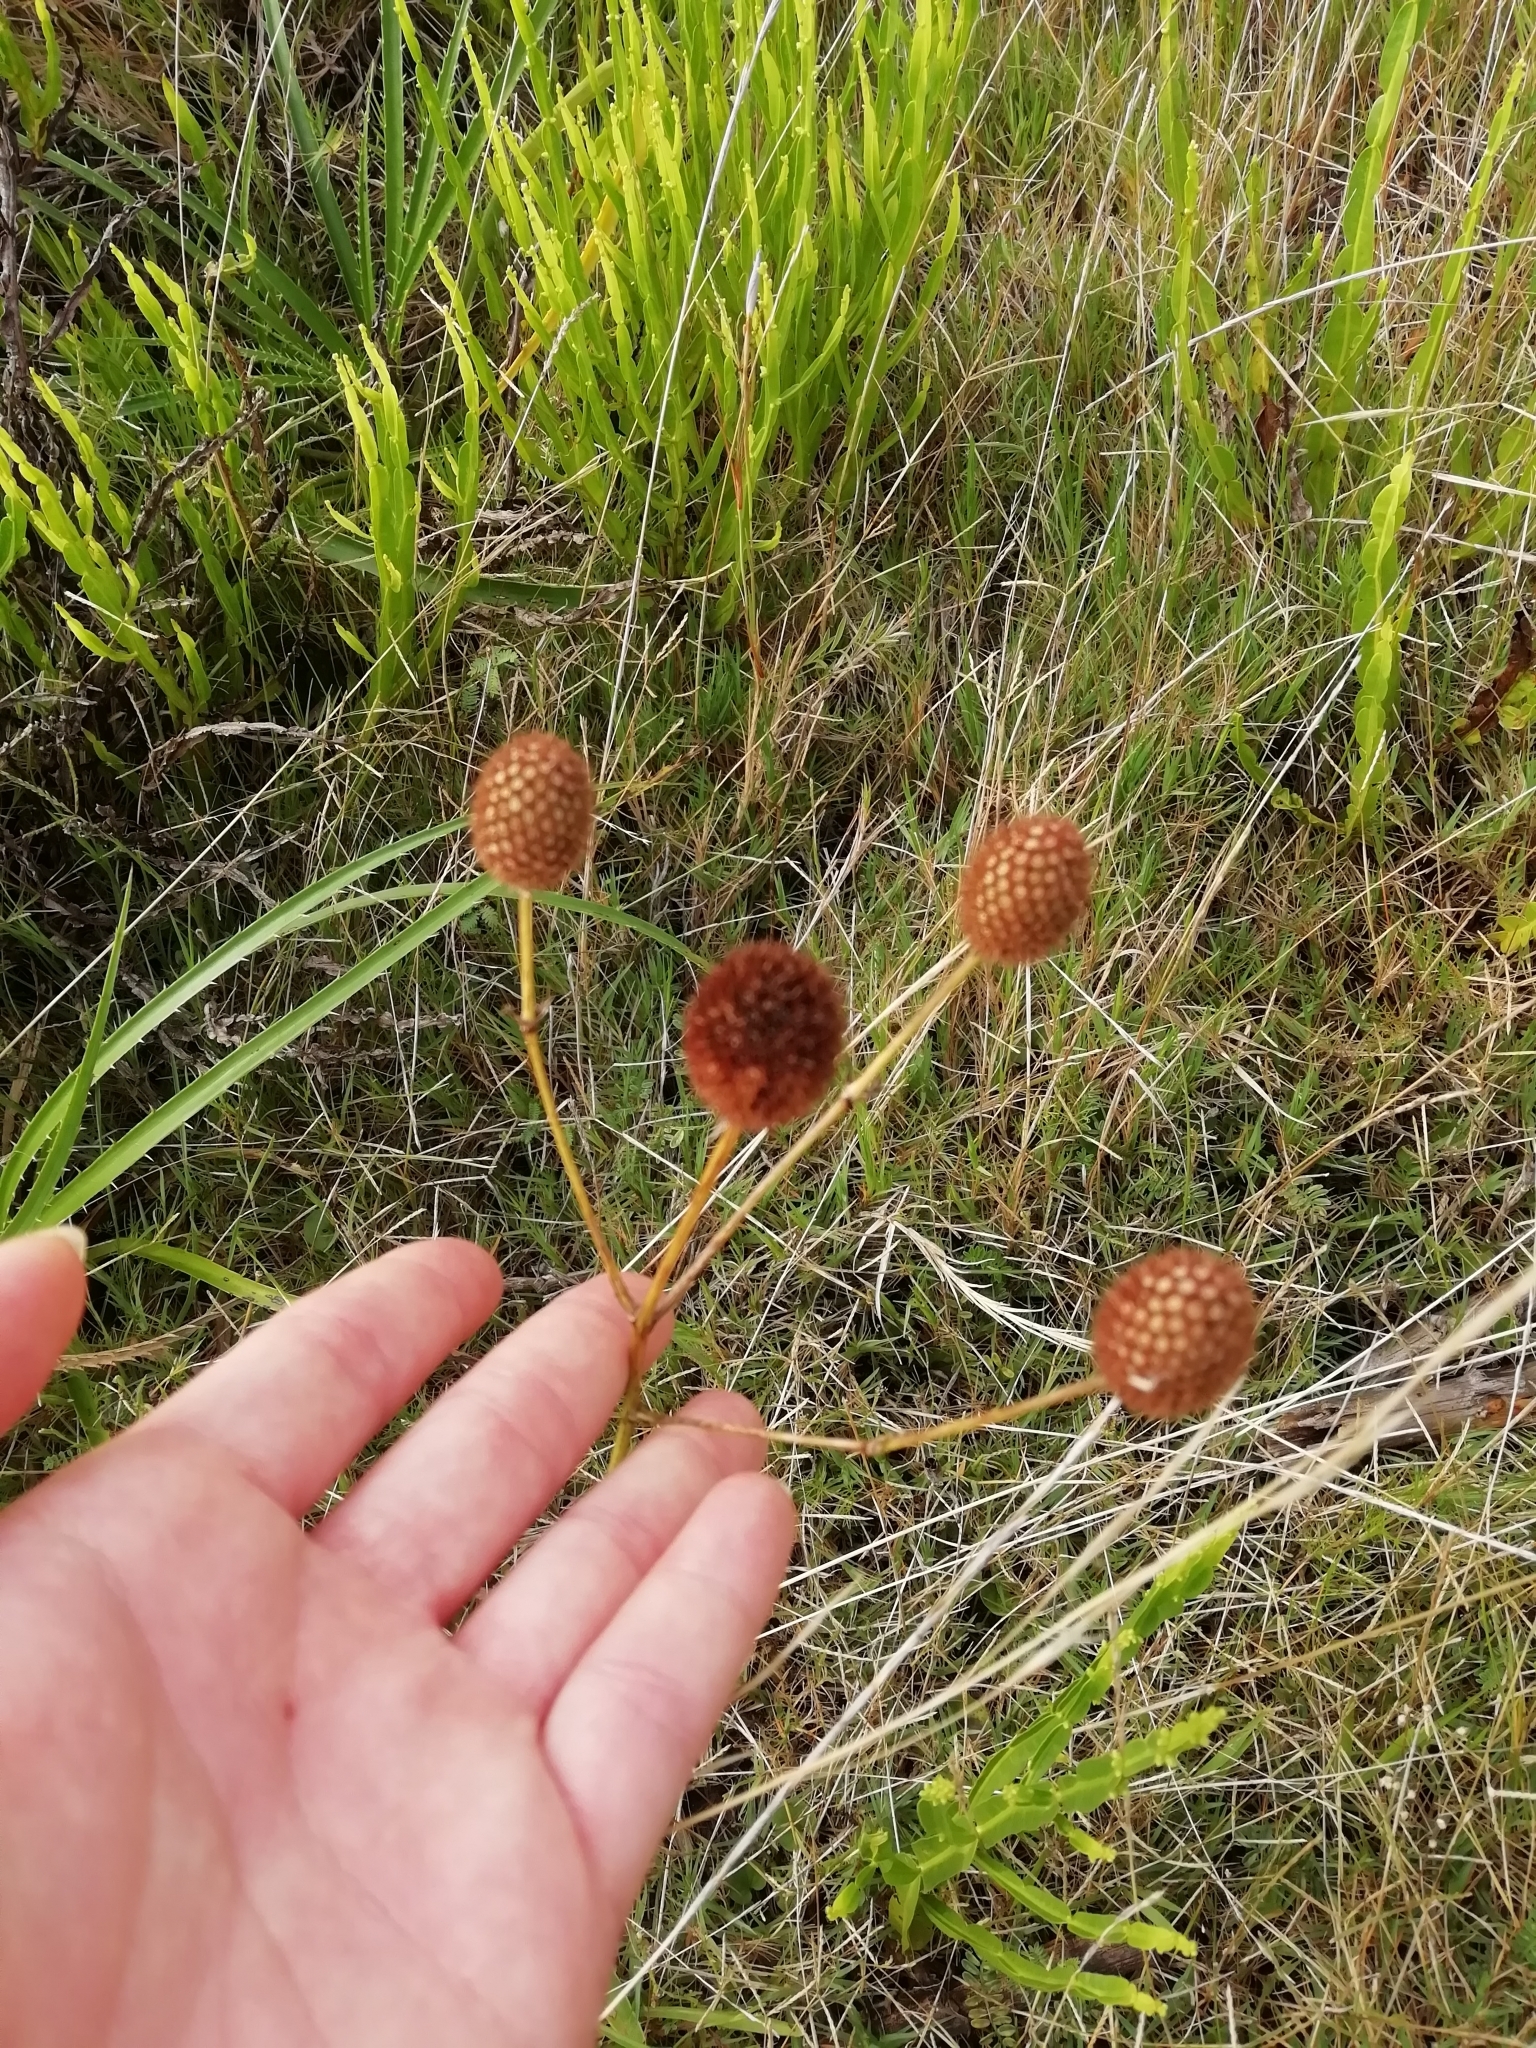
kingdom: Plantae
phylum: Tracheophyta
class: Magnoliopsida
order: Apiales
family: Apiaceae
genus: Eryngium
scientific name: Eryngium sanguisorba
